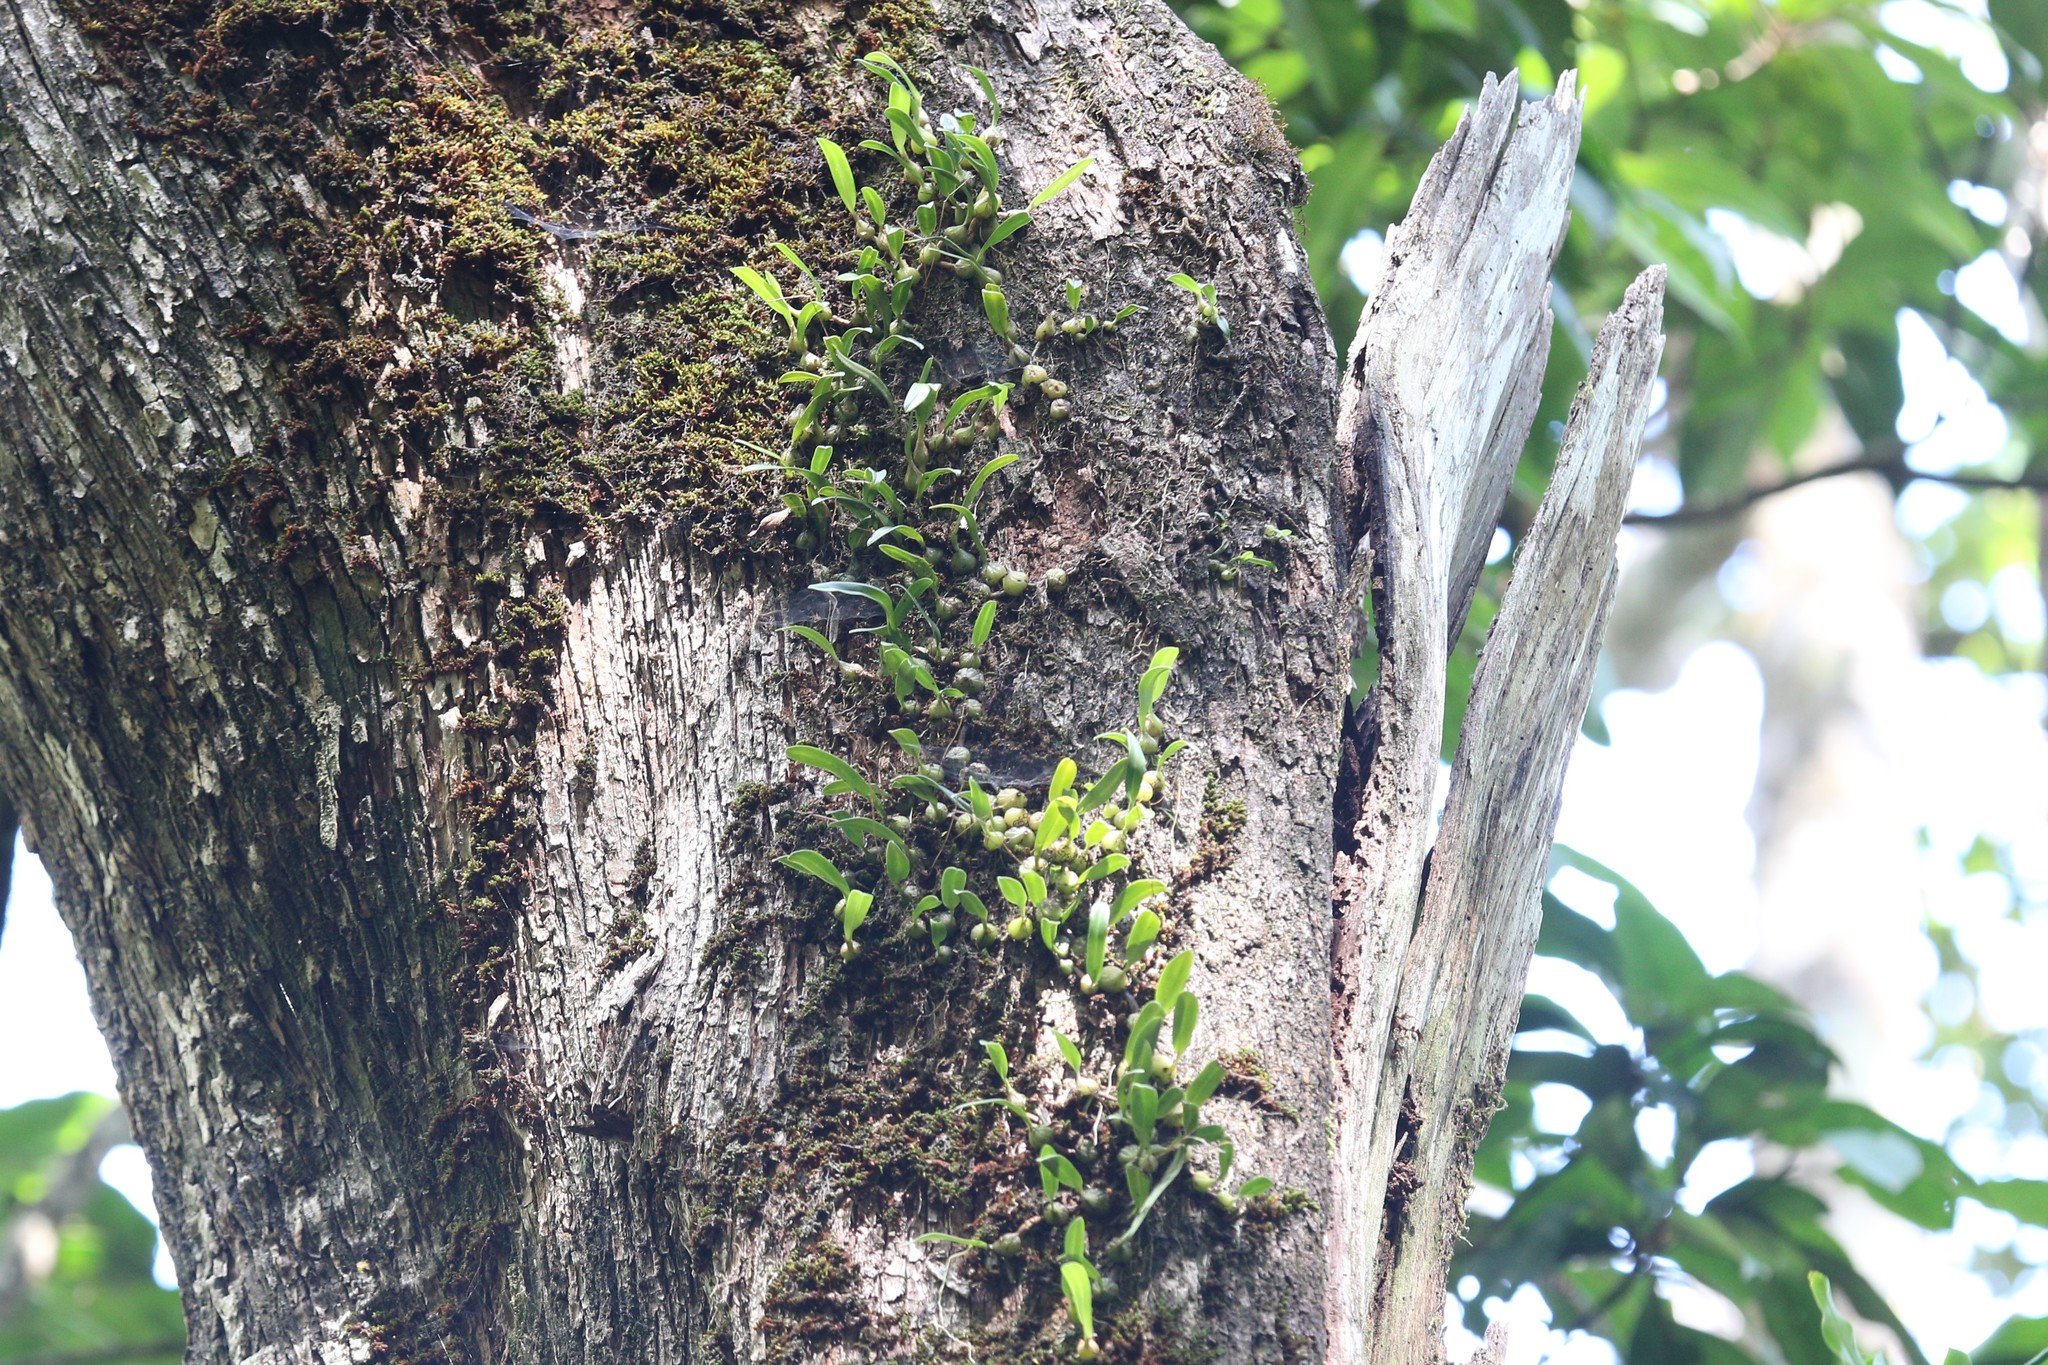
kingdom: Plantae
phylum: Tracheophyta
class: Liliopsida
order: Asparagales
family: Orchidaceae
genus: Bulbophyllum
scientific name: Bulbophyllum newportii
